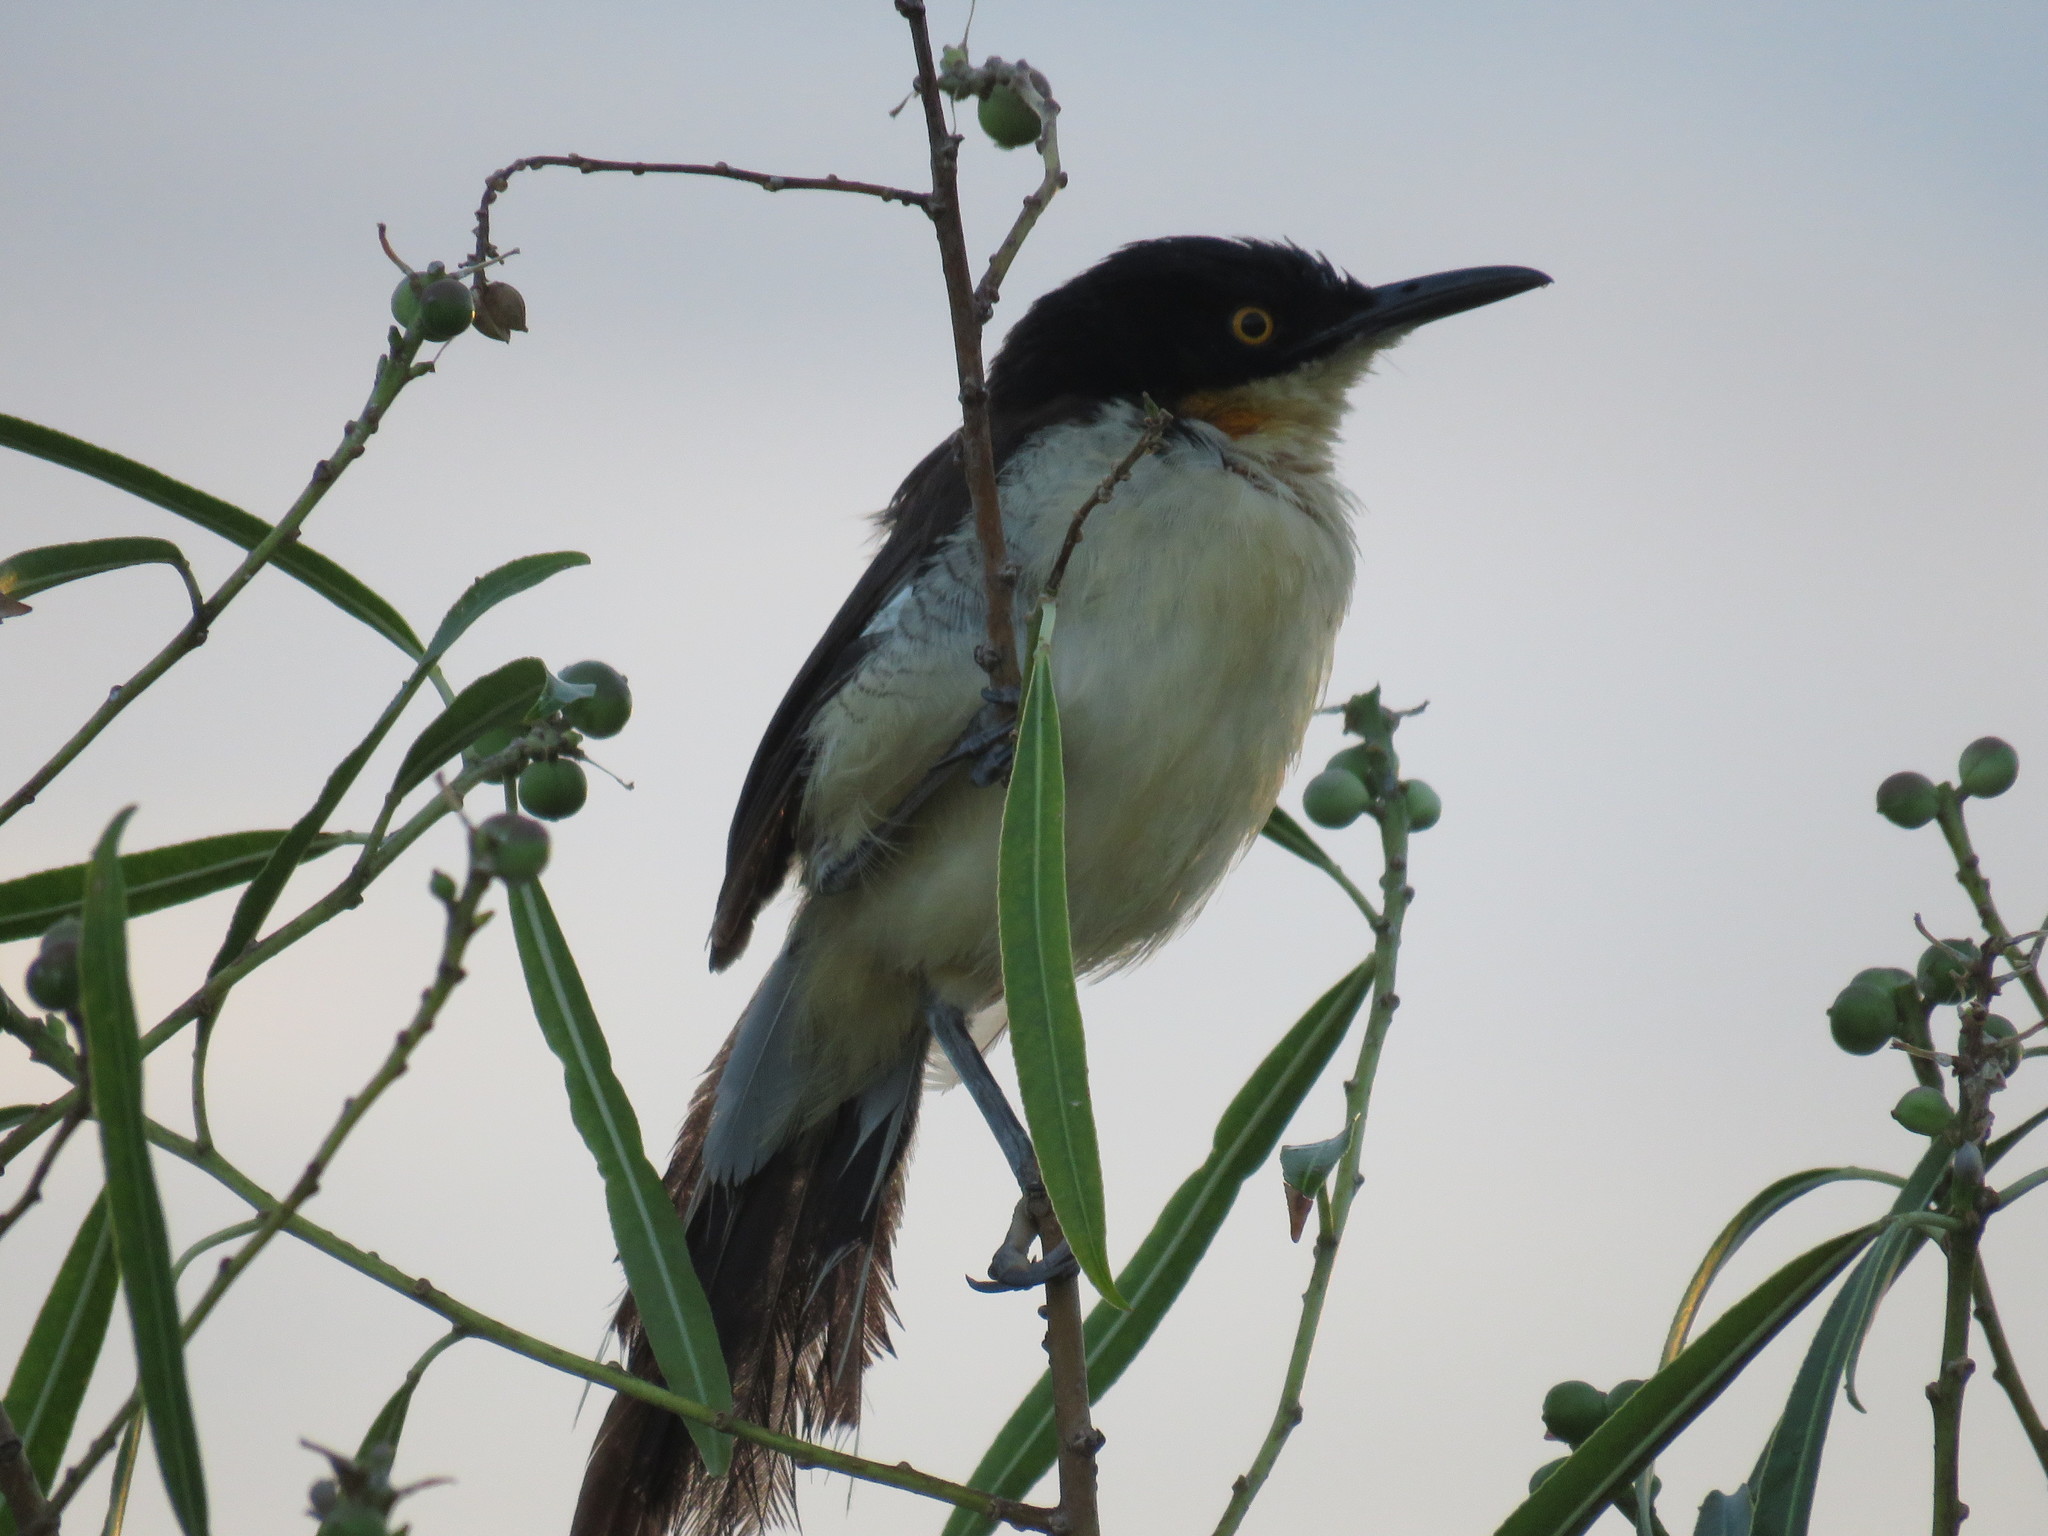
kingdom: Animalia
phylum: Chordata
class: Aves
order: Passeriformes
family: Donacobiidae
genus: Donacobius
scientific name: Donacobius atricapilla
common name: Black-capped donacobius
